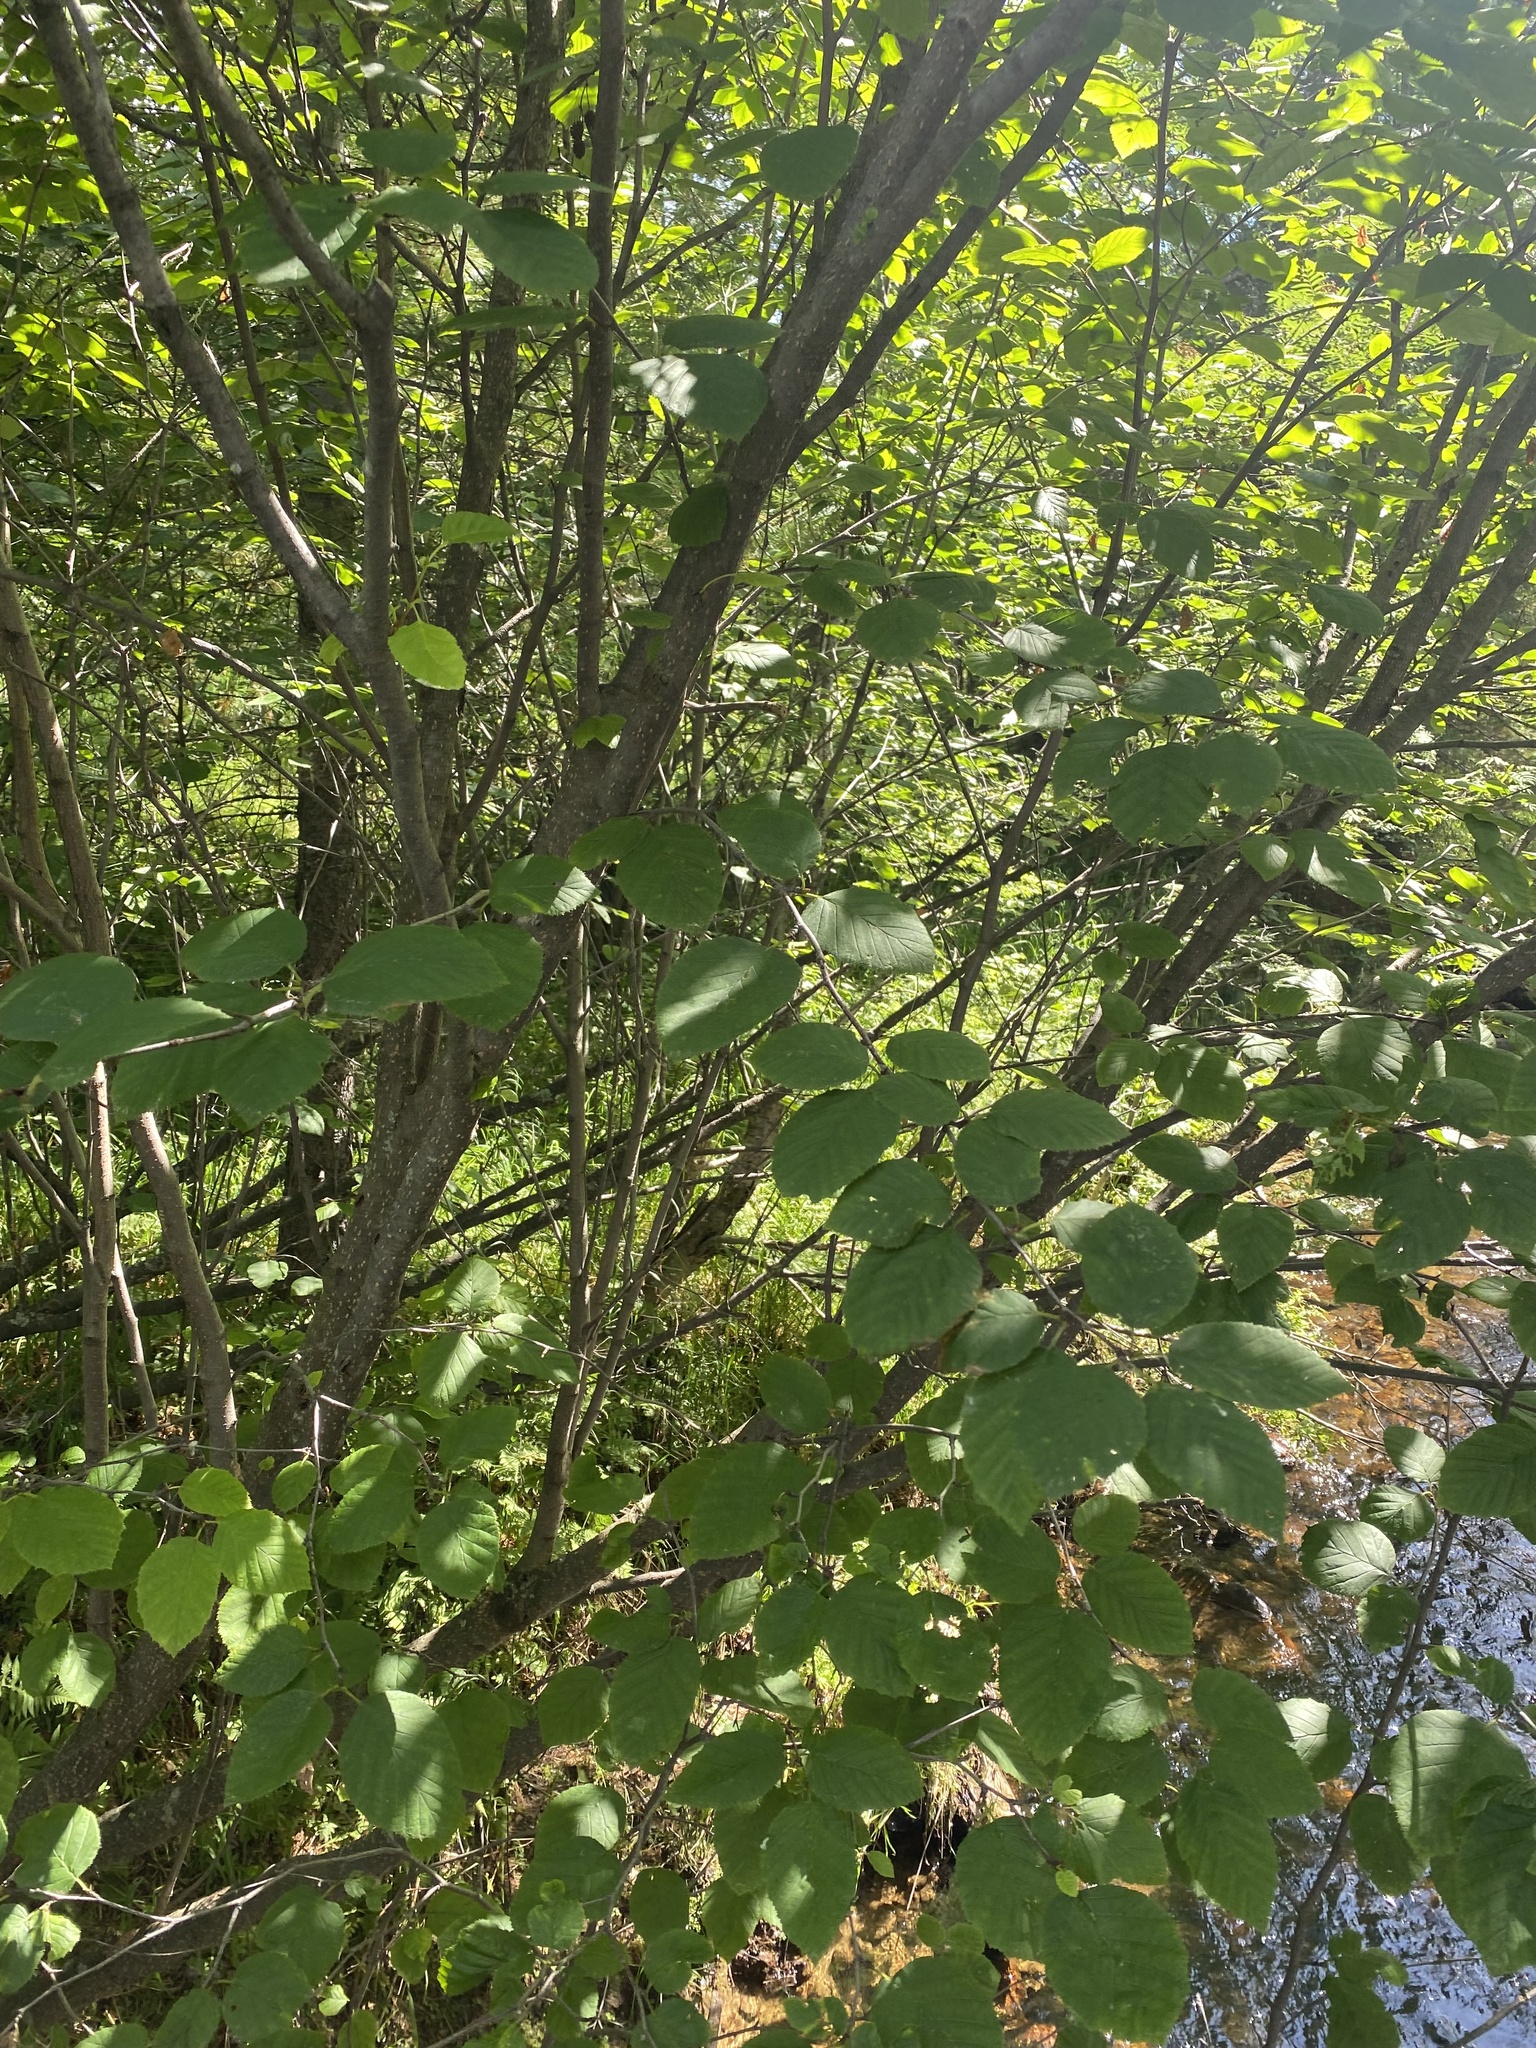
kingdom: Plantae
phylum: Tracheophyta
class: Magnoliopsida
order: Fagales
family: Betulaceae
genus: Alnus
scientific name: Alnus alnobetula
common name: Green alder
